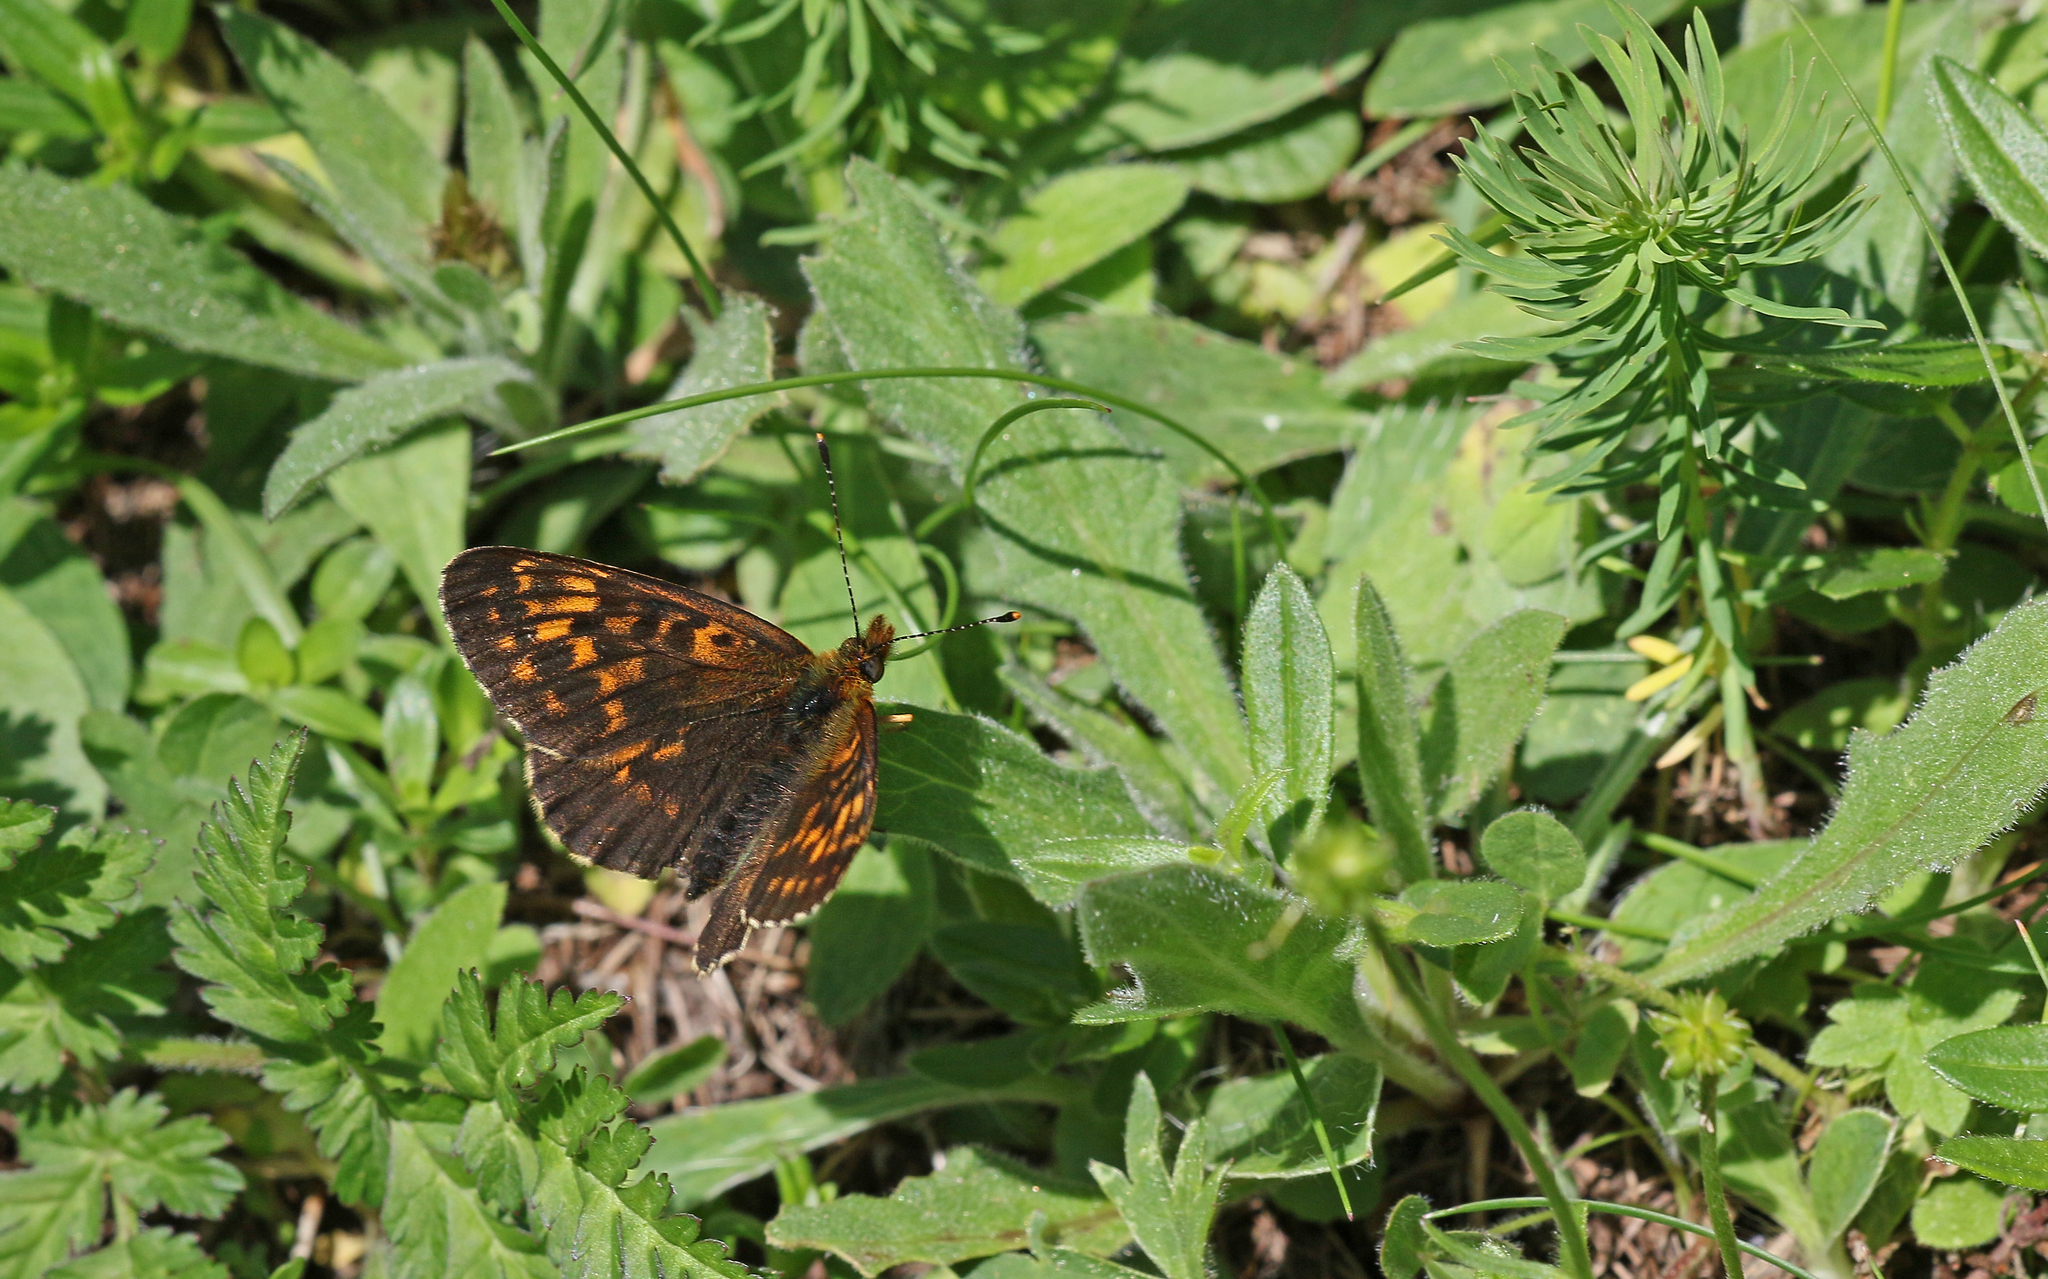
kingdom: Animalia
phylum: Arthropoda
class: Insecta
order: Lepidoptera
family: Nymphalidae
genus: Boloria
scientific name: Boloria thore
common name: Thor's fritillary
